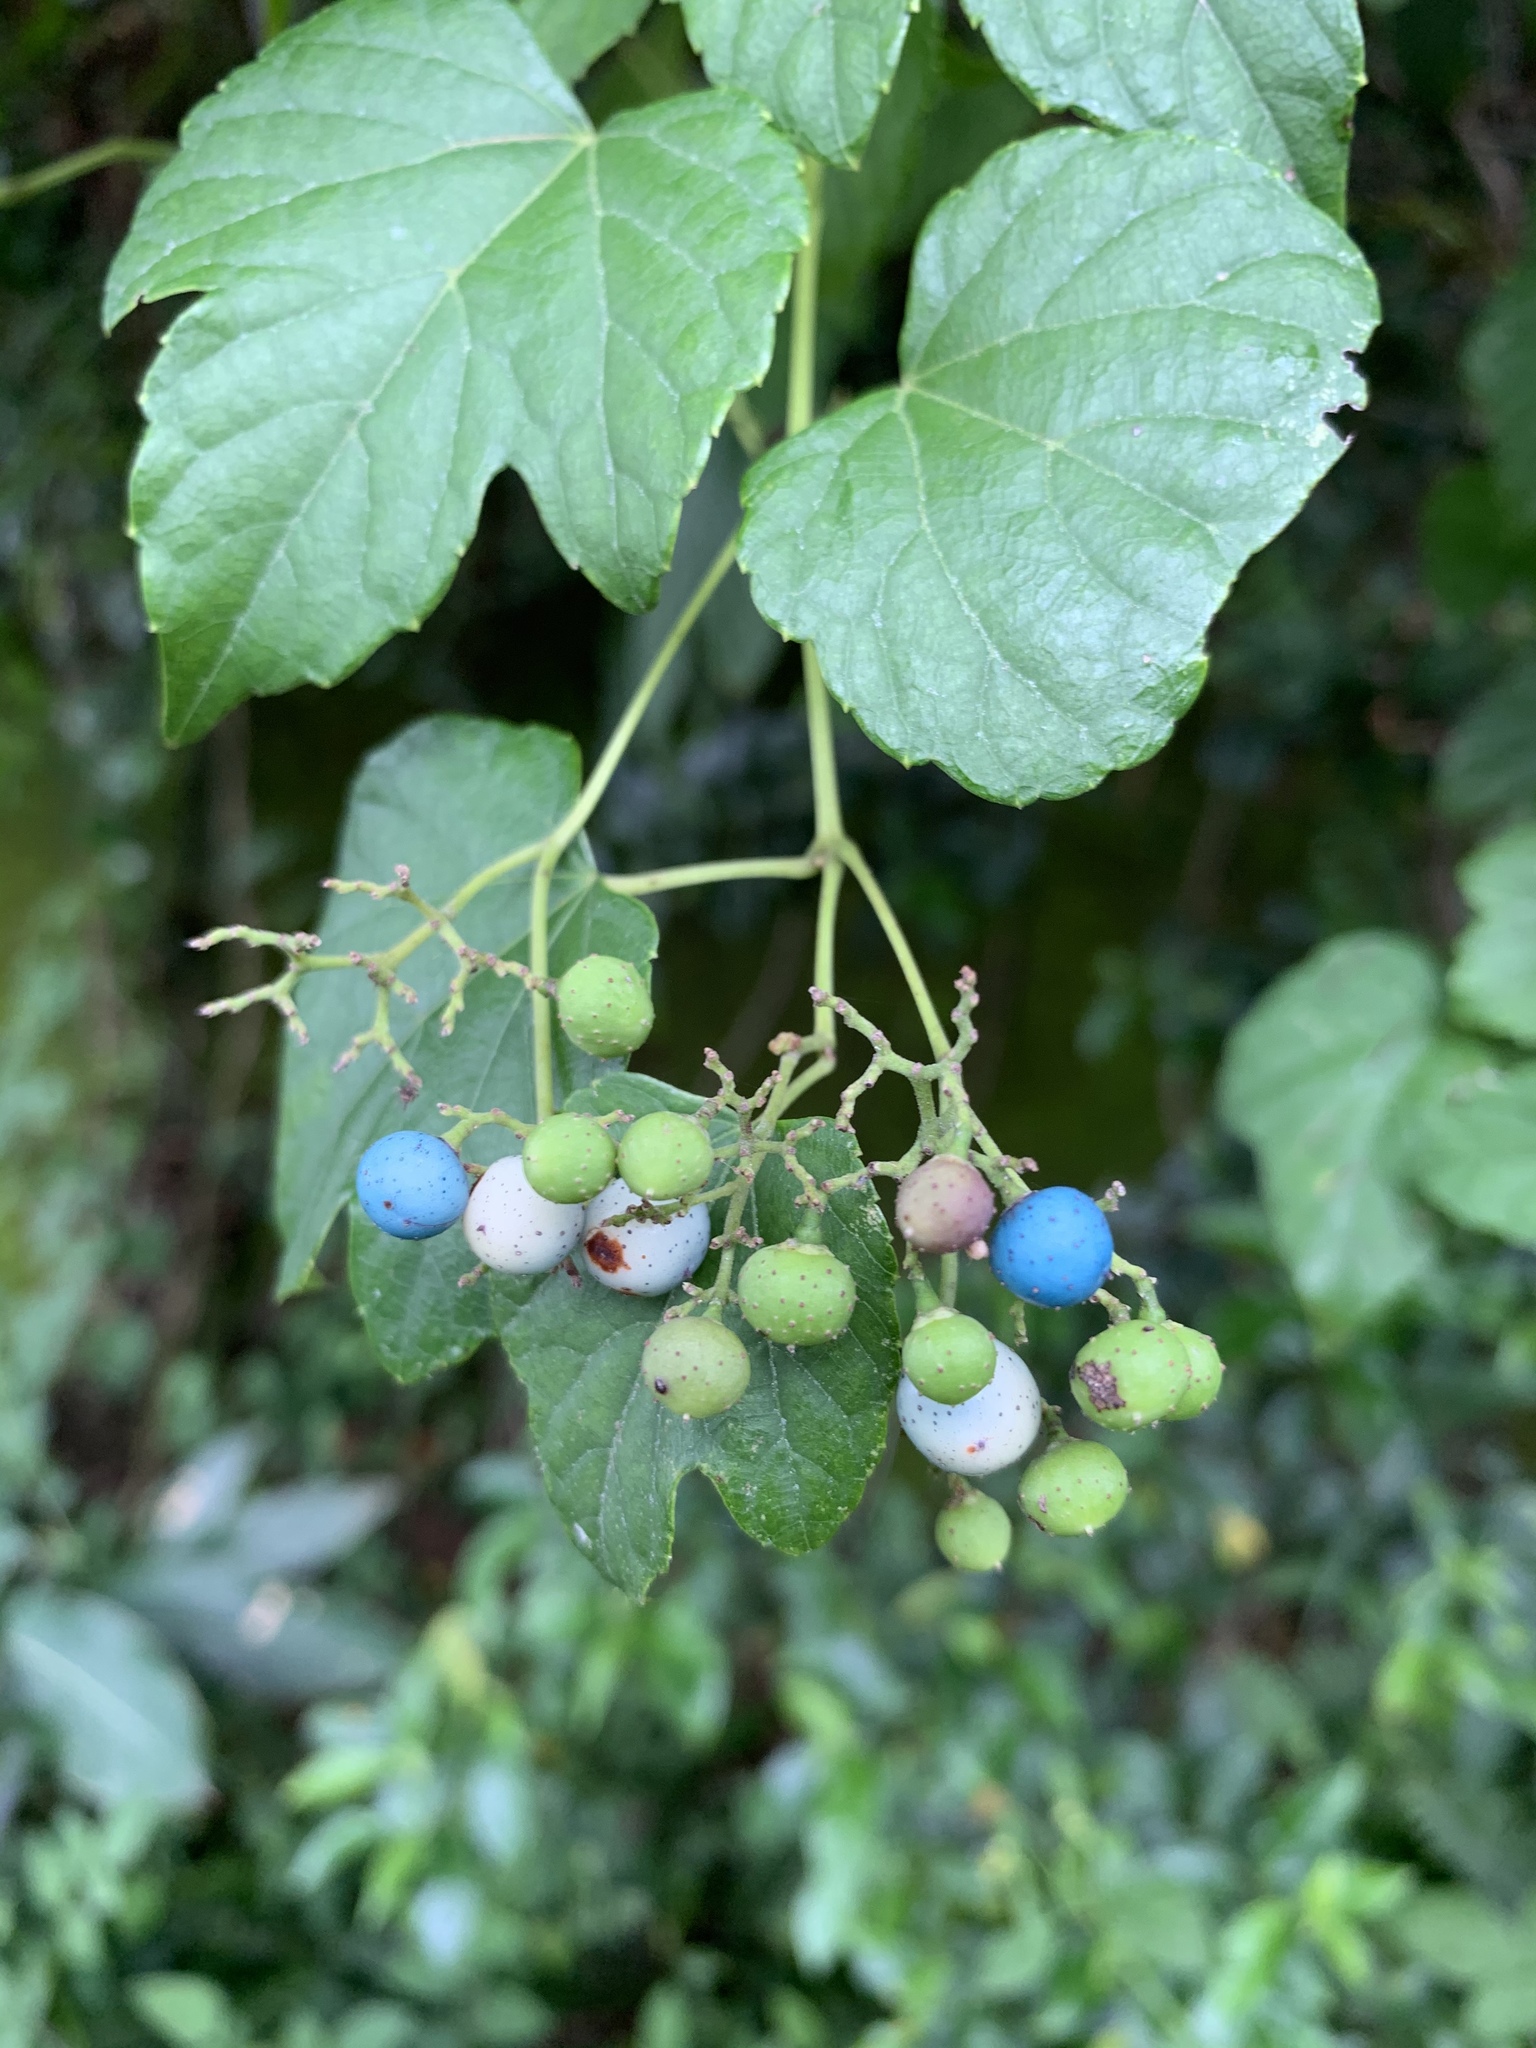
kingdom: Plantae
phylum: Tracheophyta
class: Magnoliopsida
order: Vitales
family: Vitaceae
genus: Ampelopsis
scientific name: Ampelopsis glandulosa
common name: Amur peppervine
